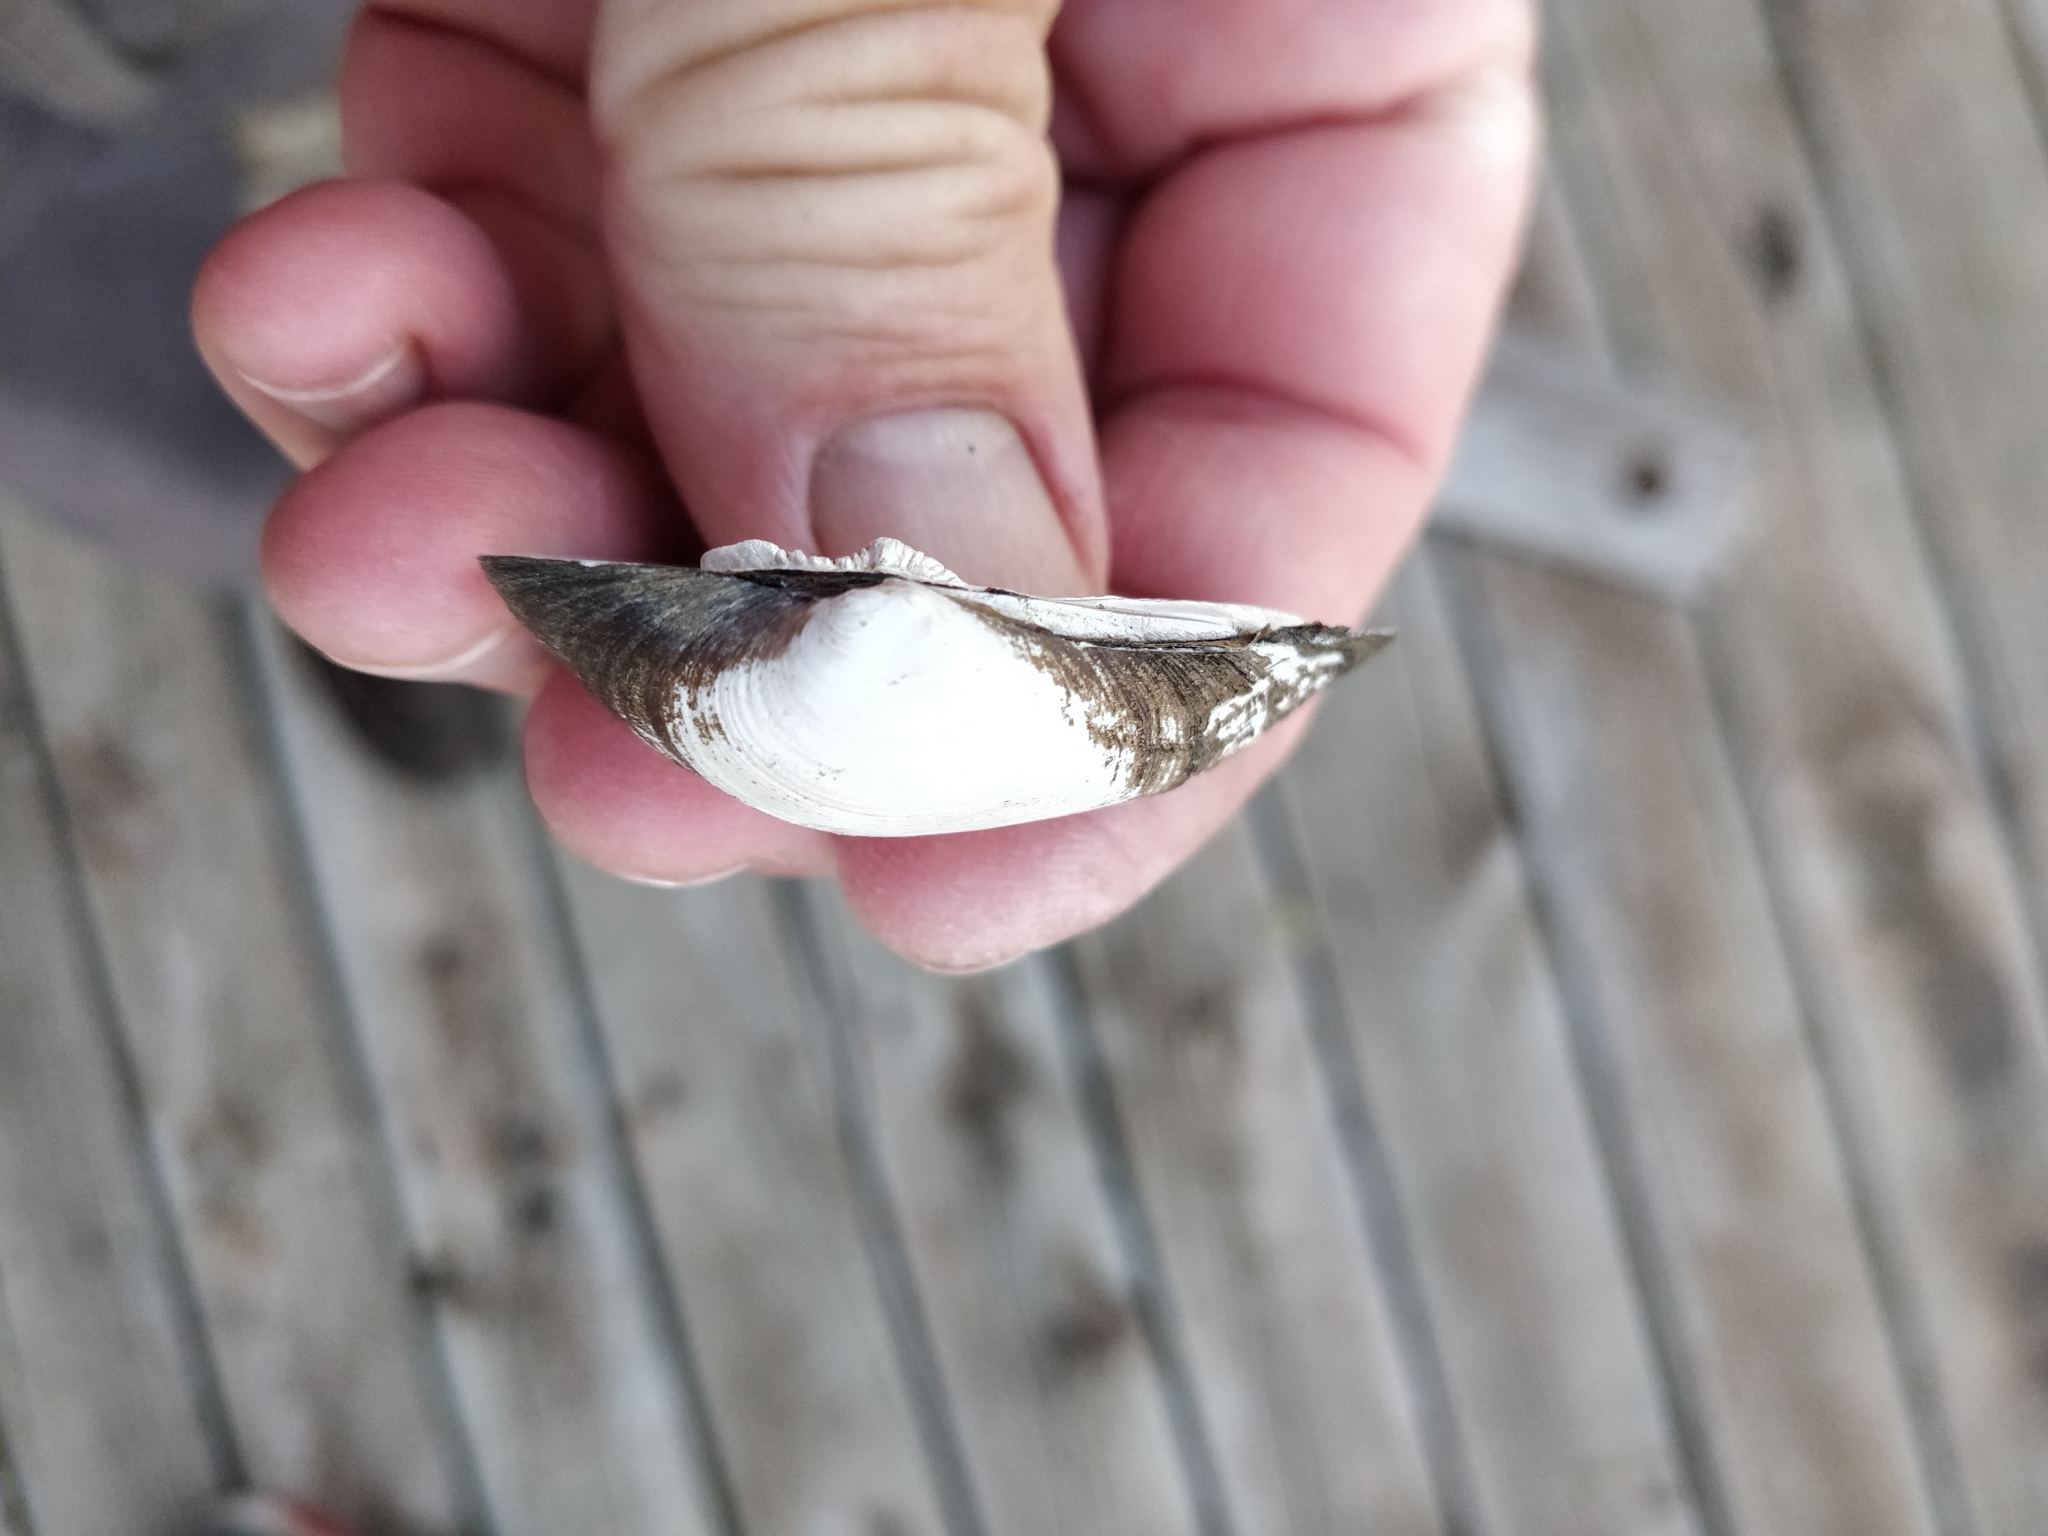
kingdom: Animalia
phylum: Mollusca
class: Bivalvia
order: Unionida
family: Unionidae
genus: Fusconaia
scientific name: Fusconaia flava
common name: Wabash pigtoe
